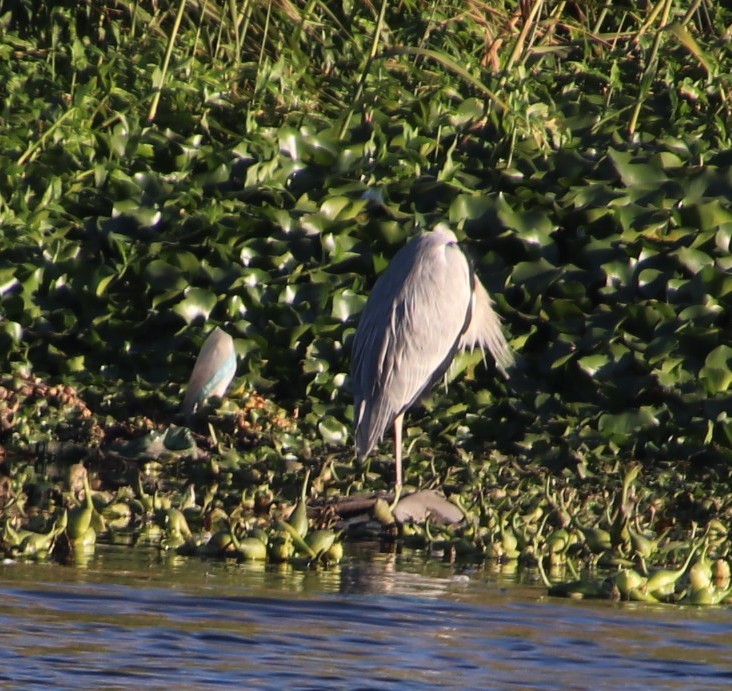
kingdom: Animalia
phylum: Chordata
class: Aves
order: Pelecaniformes
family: Ardeidae
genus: Ardea
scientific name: Ardea cinerea
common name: Grey heron
